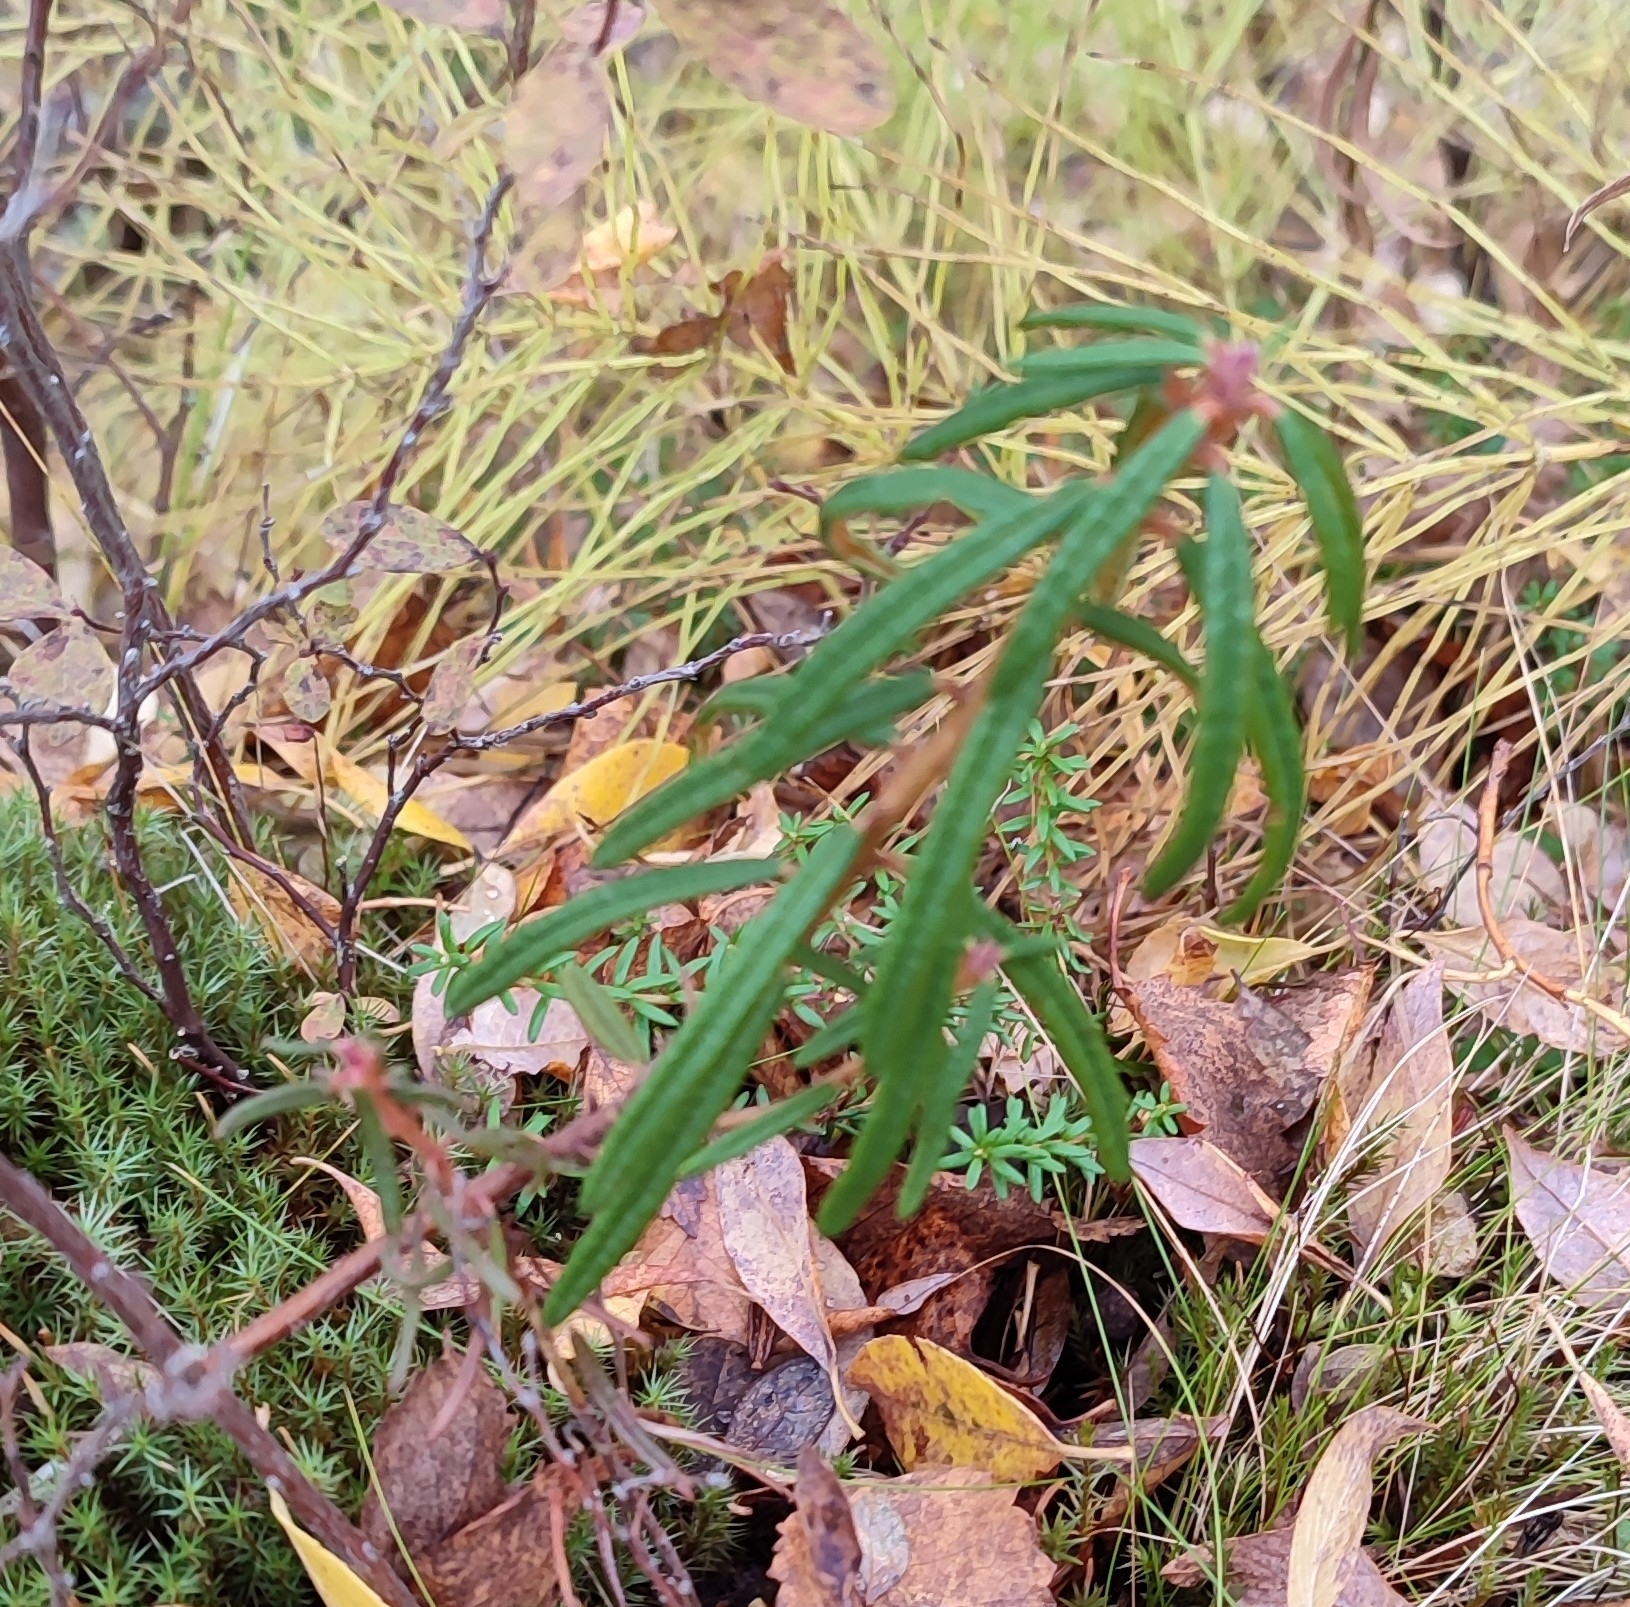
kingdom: Plantae
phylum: Tracheophyta
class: Magnoliopsida
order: Ericales
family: Ericaceae
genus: Rhododendron
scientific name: Rhododendron tomentosum
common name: Marsh labrador tea
